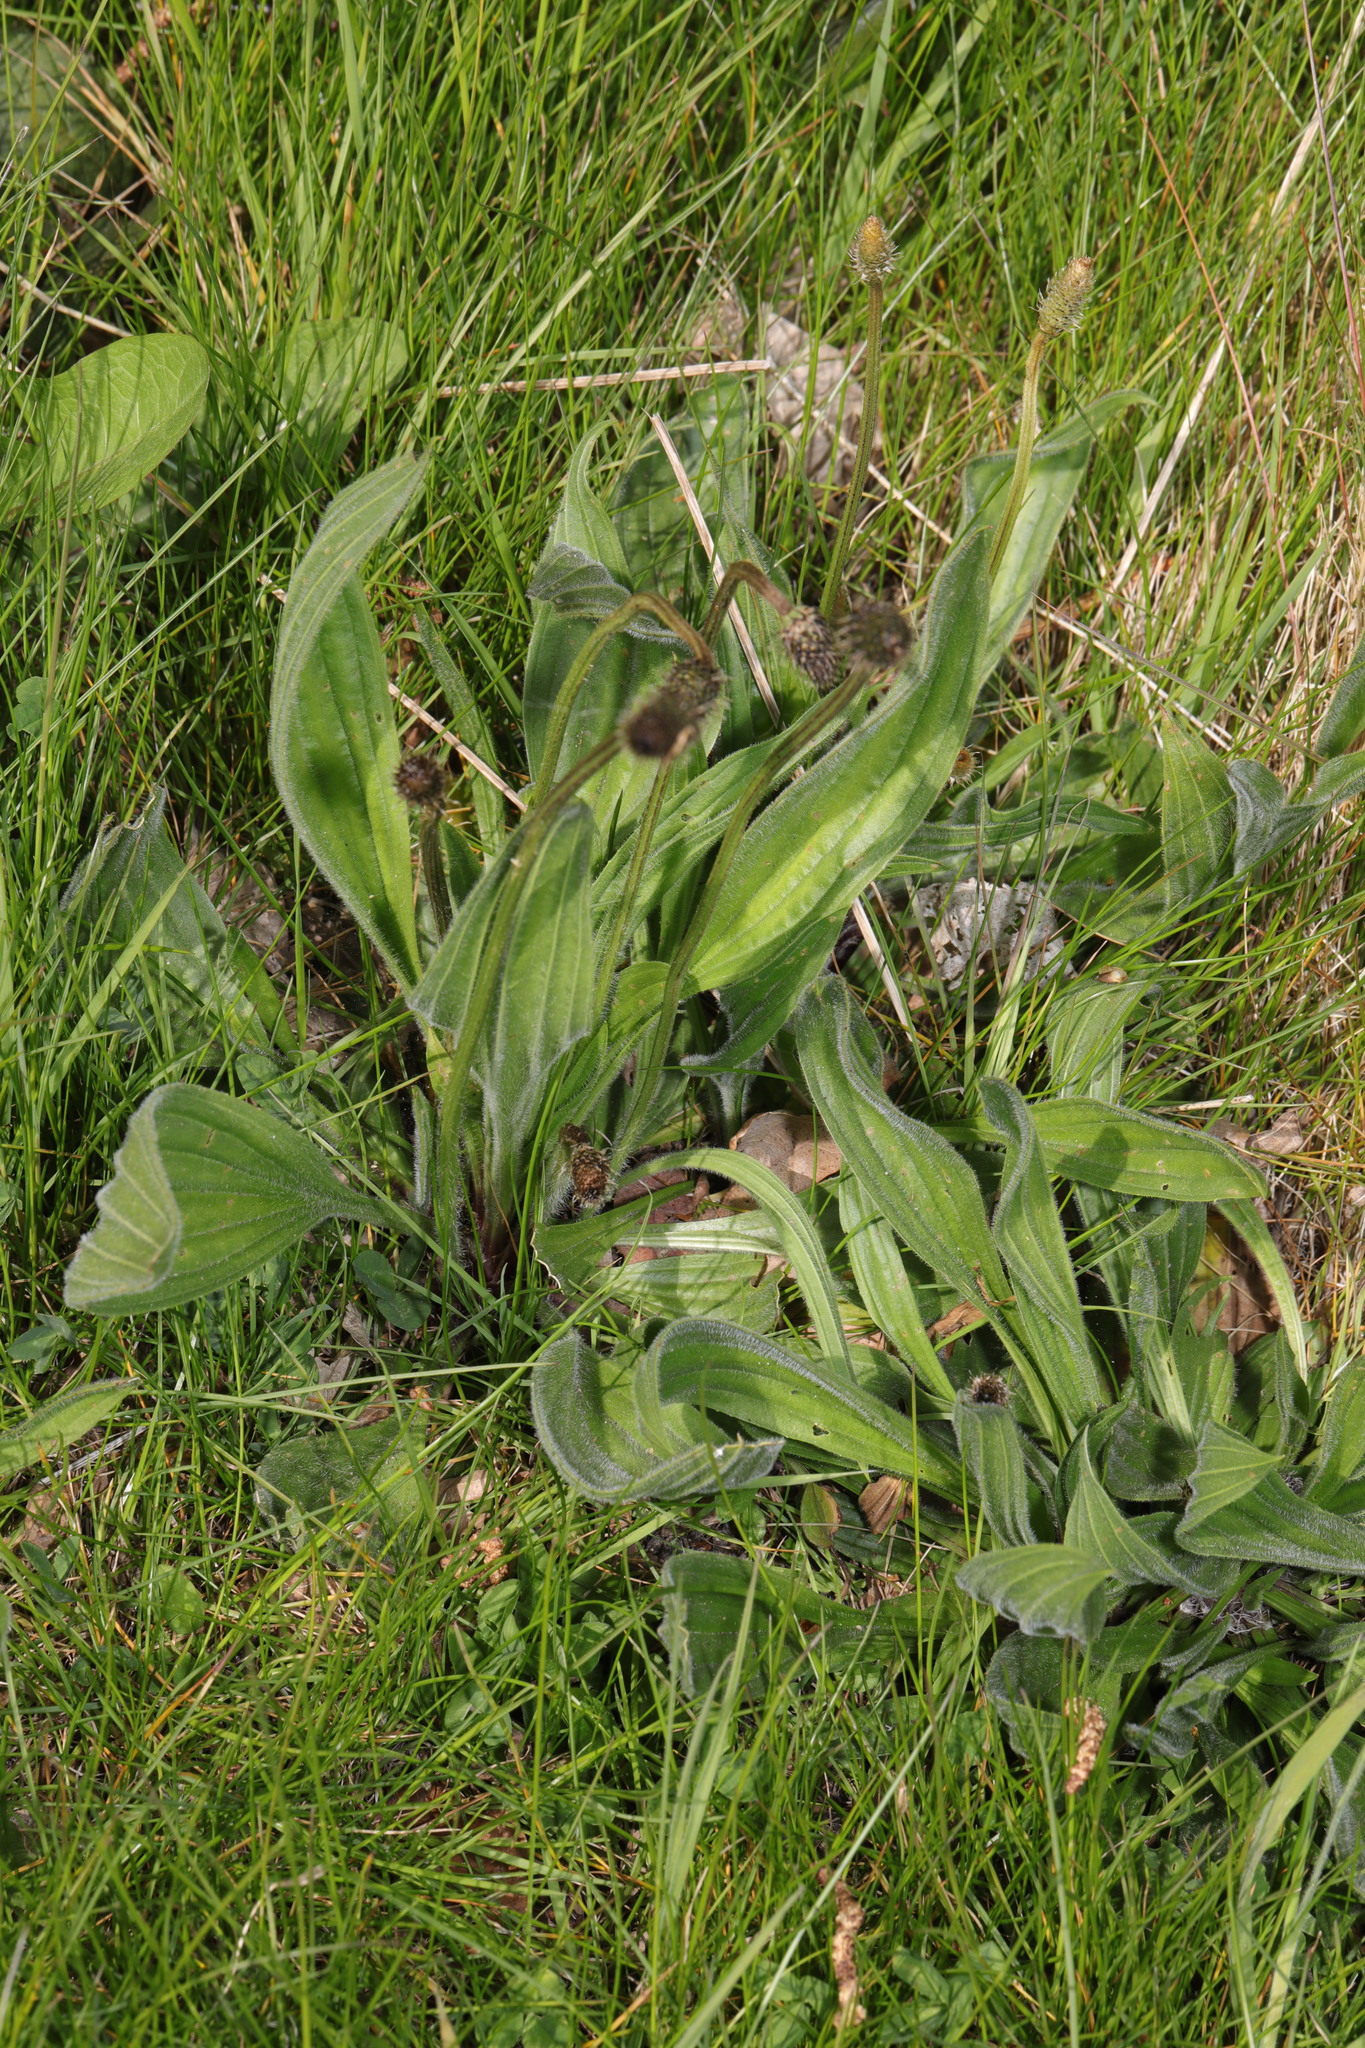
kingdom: Plantae
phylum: Tracheophyta
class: Magnoliopsida
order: Lamiales
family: Plantaginaceae
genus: Plantago
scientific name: Plantago lanceolata
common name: Ribwort plantain
